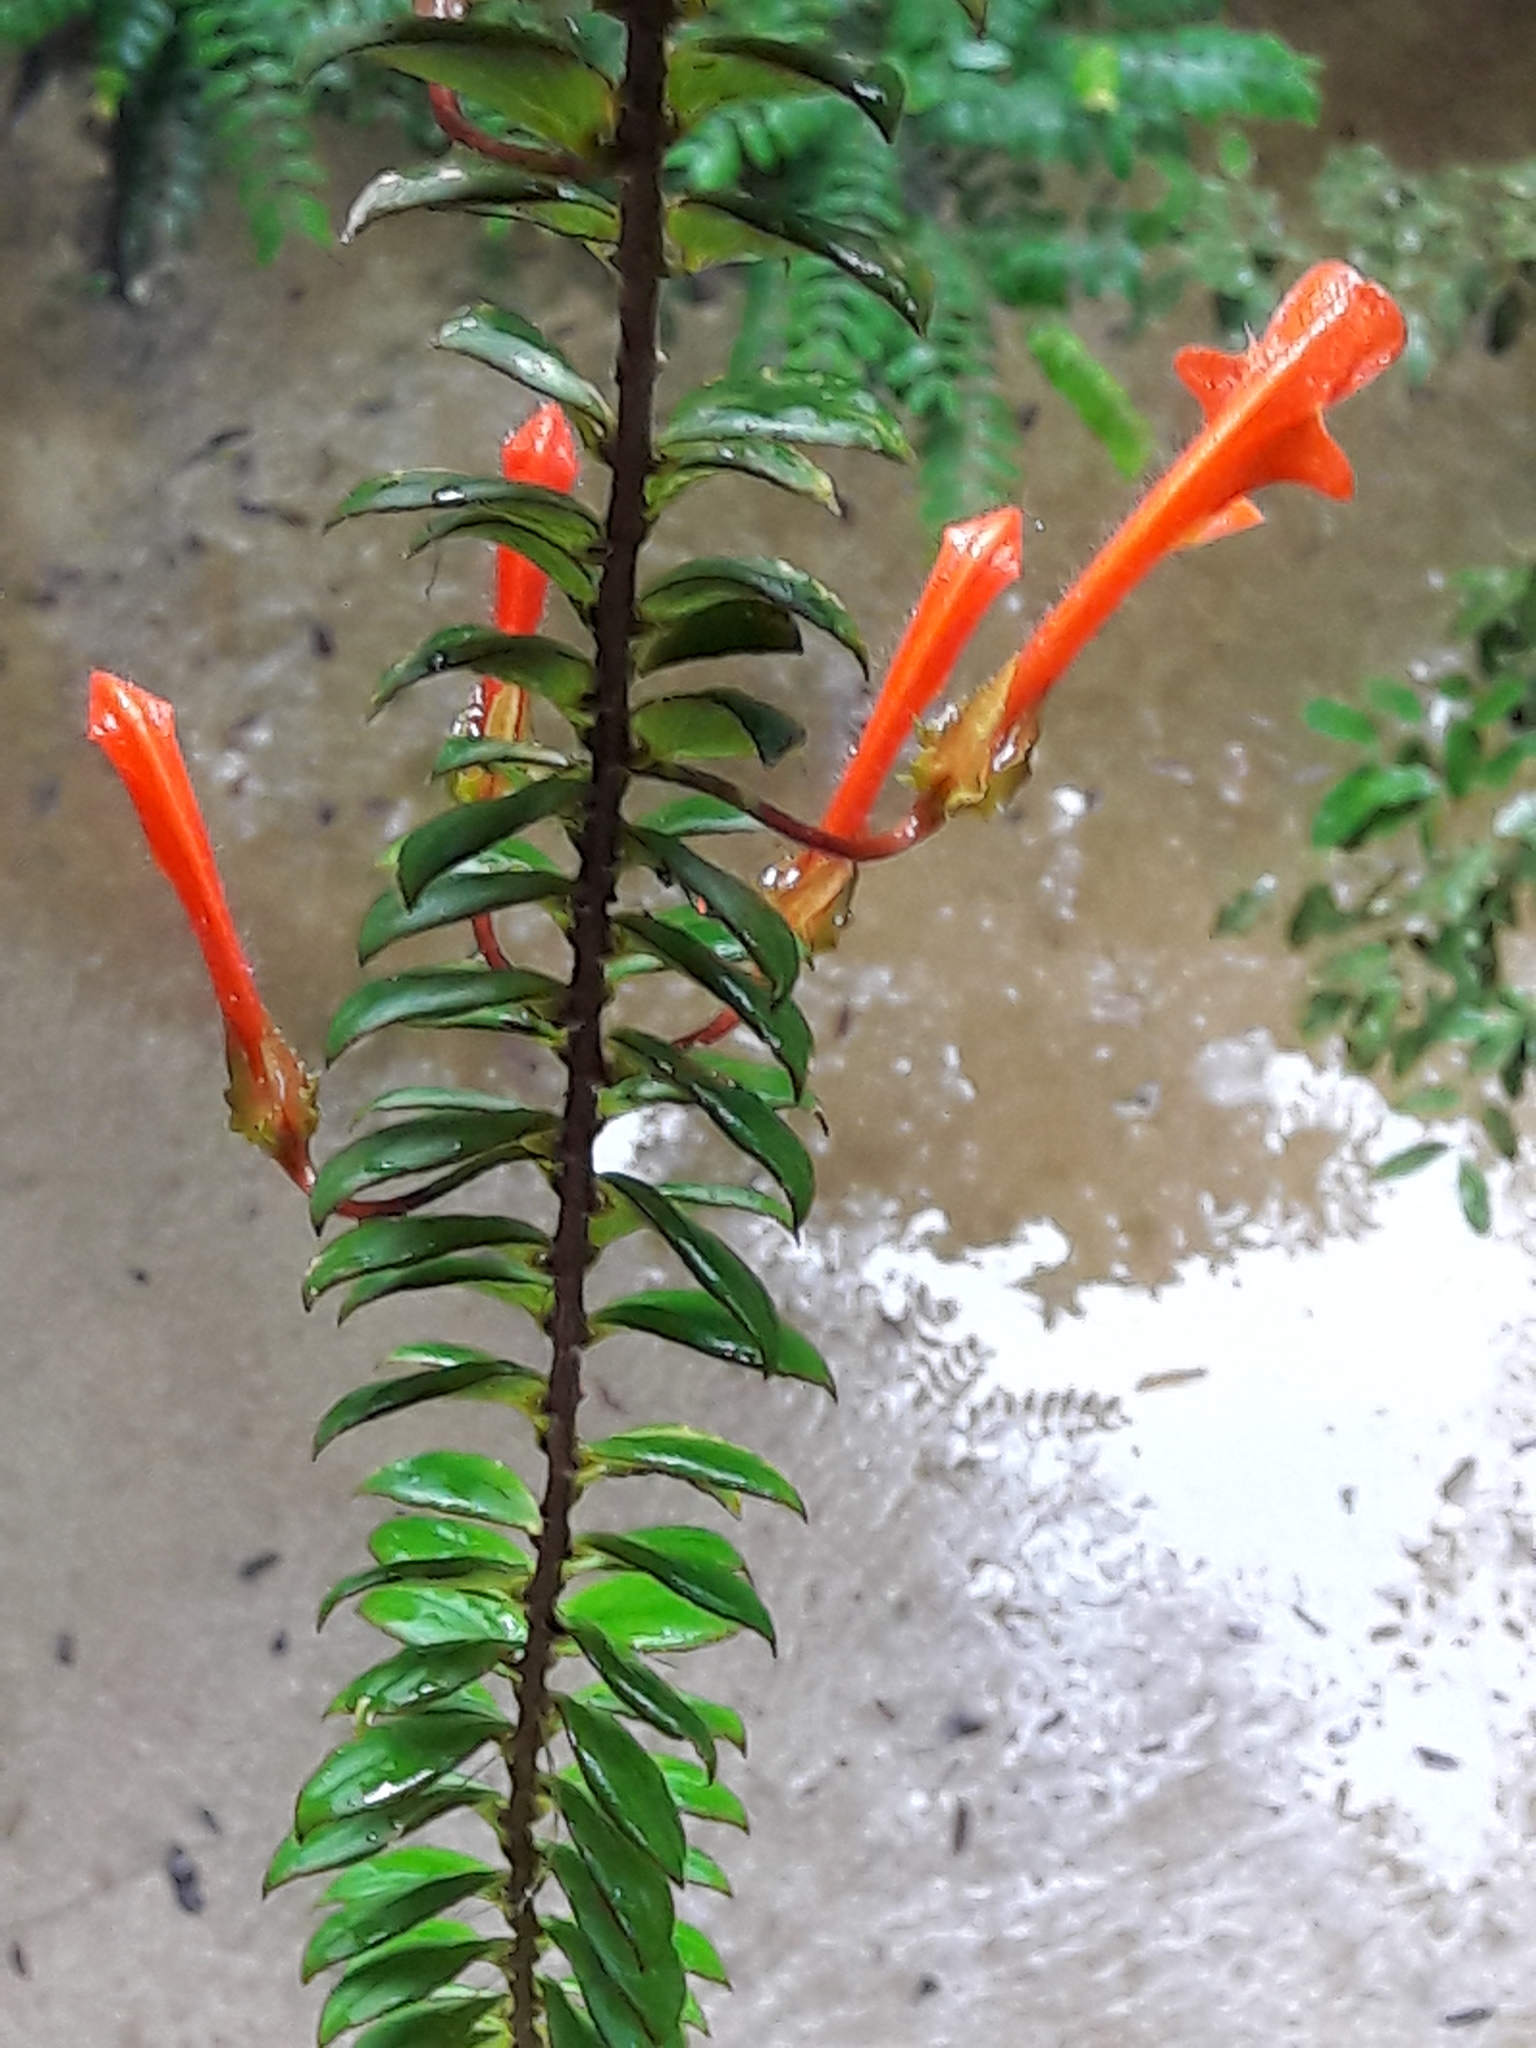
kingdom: Plantae
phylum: Tracheophyta
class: Magnoliopsida
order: Lamiales
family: Gesneriaceae
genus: Columnea
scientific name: Columnea oerstediana
